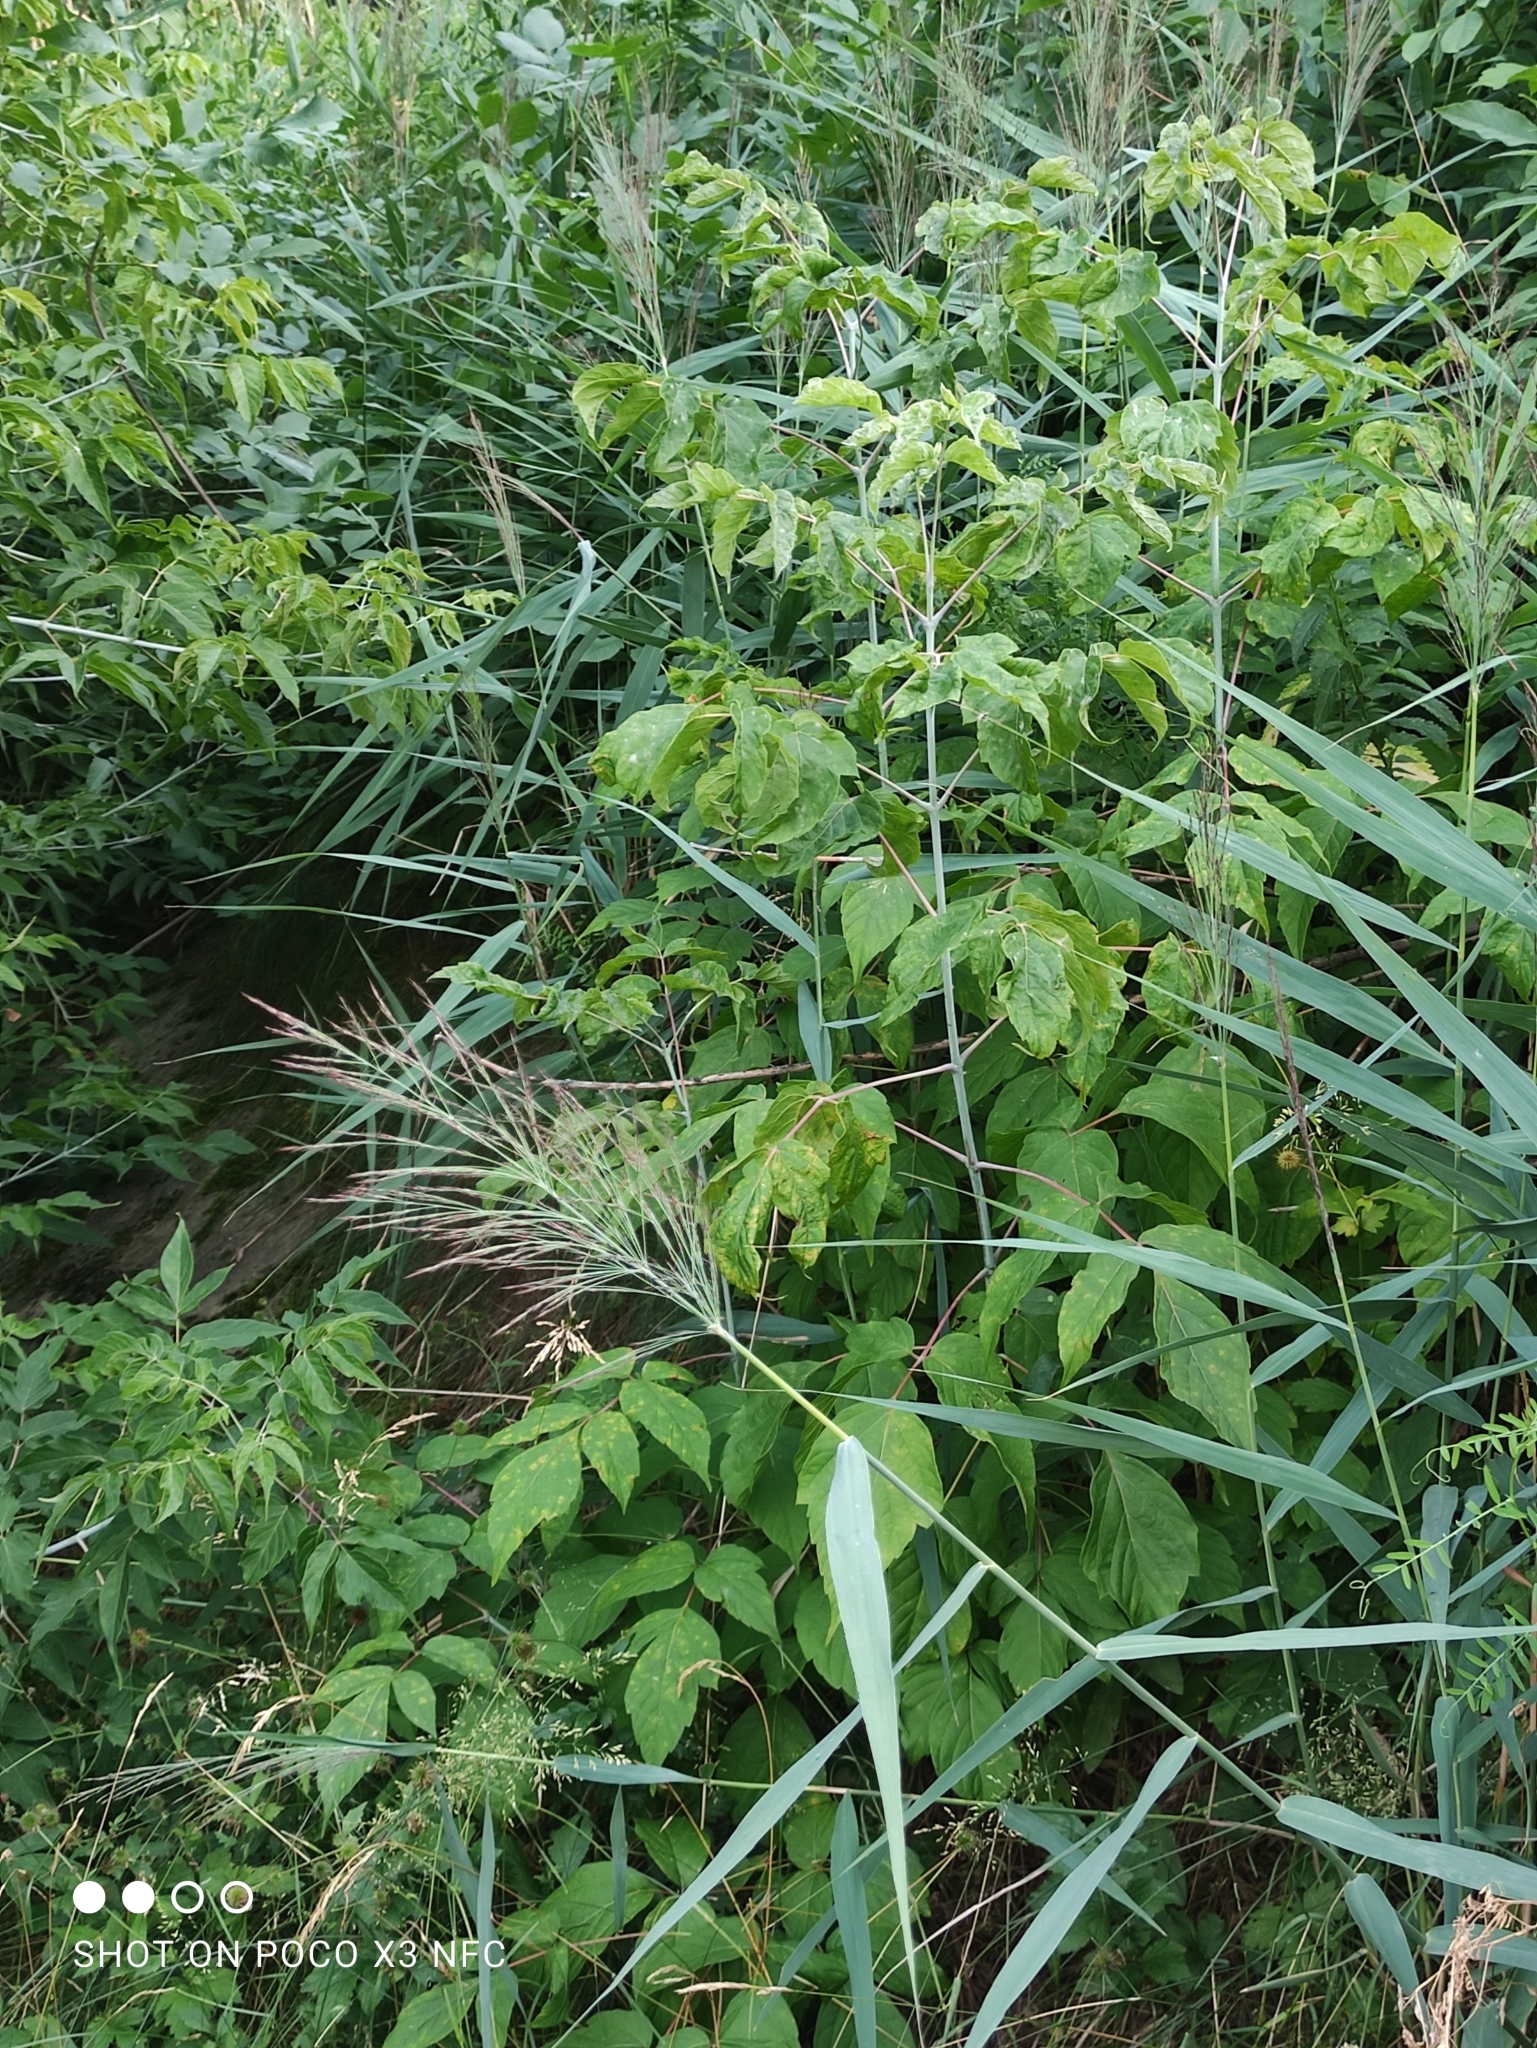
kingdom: Plantae
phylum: Tracheophyta
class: Liliopsida
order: Poales
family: Poaceae
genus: Phragmites
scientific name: Phragmites australis
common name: Common reed
